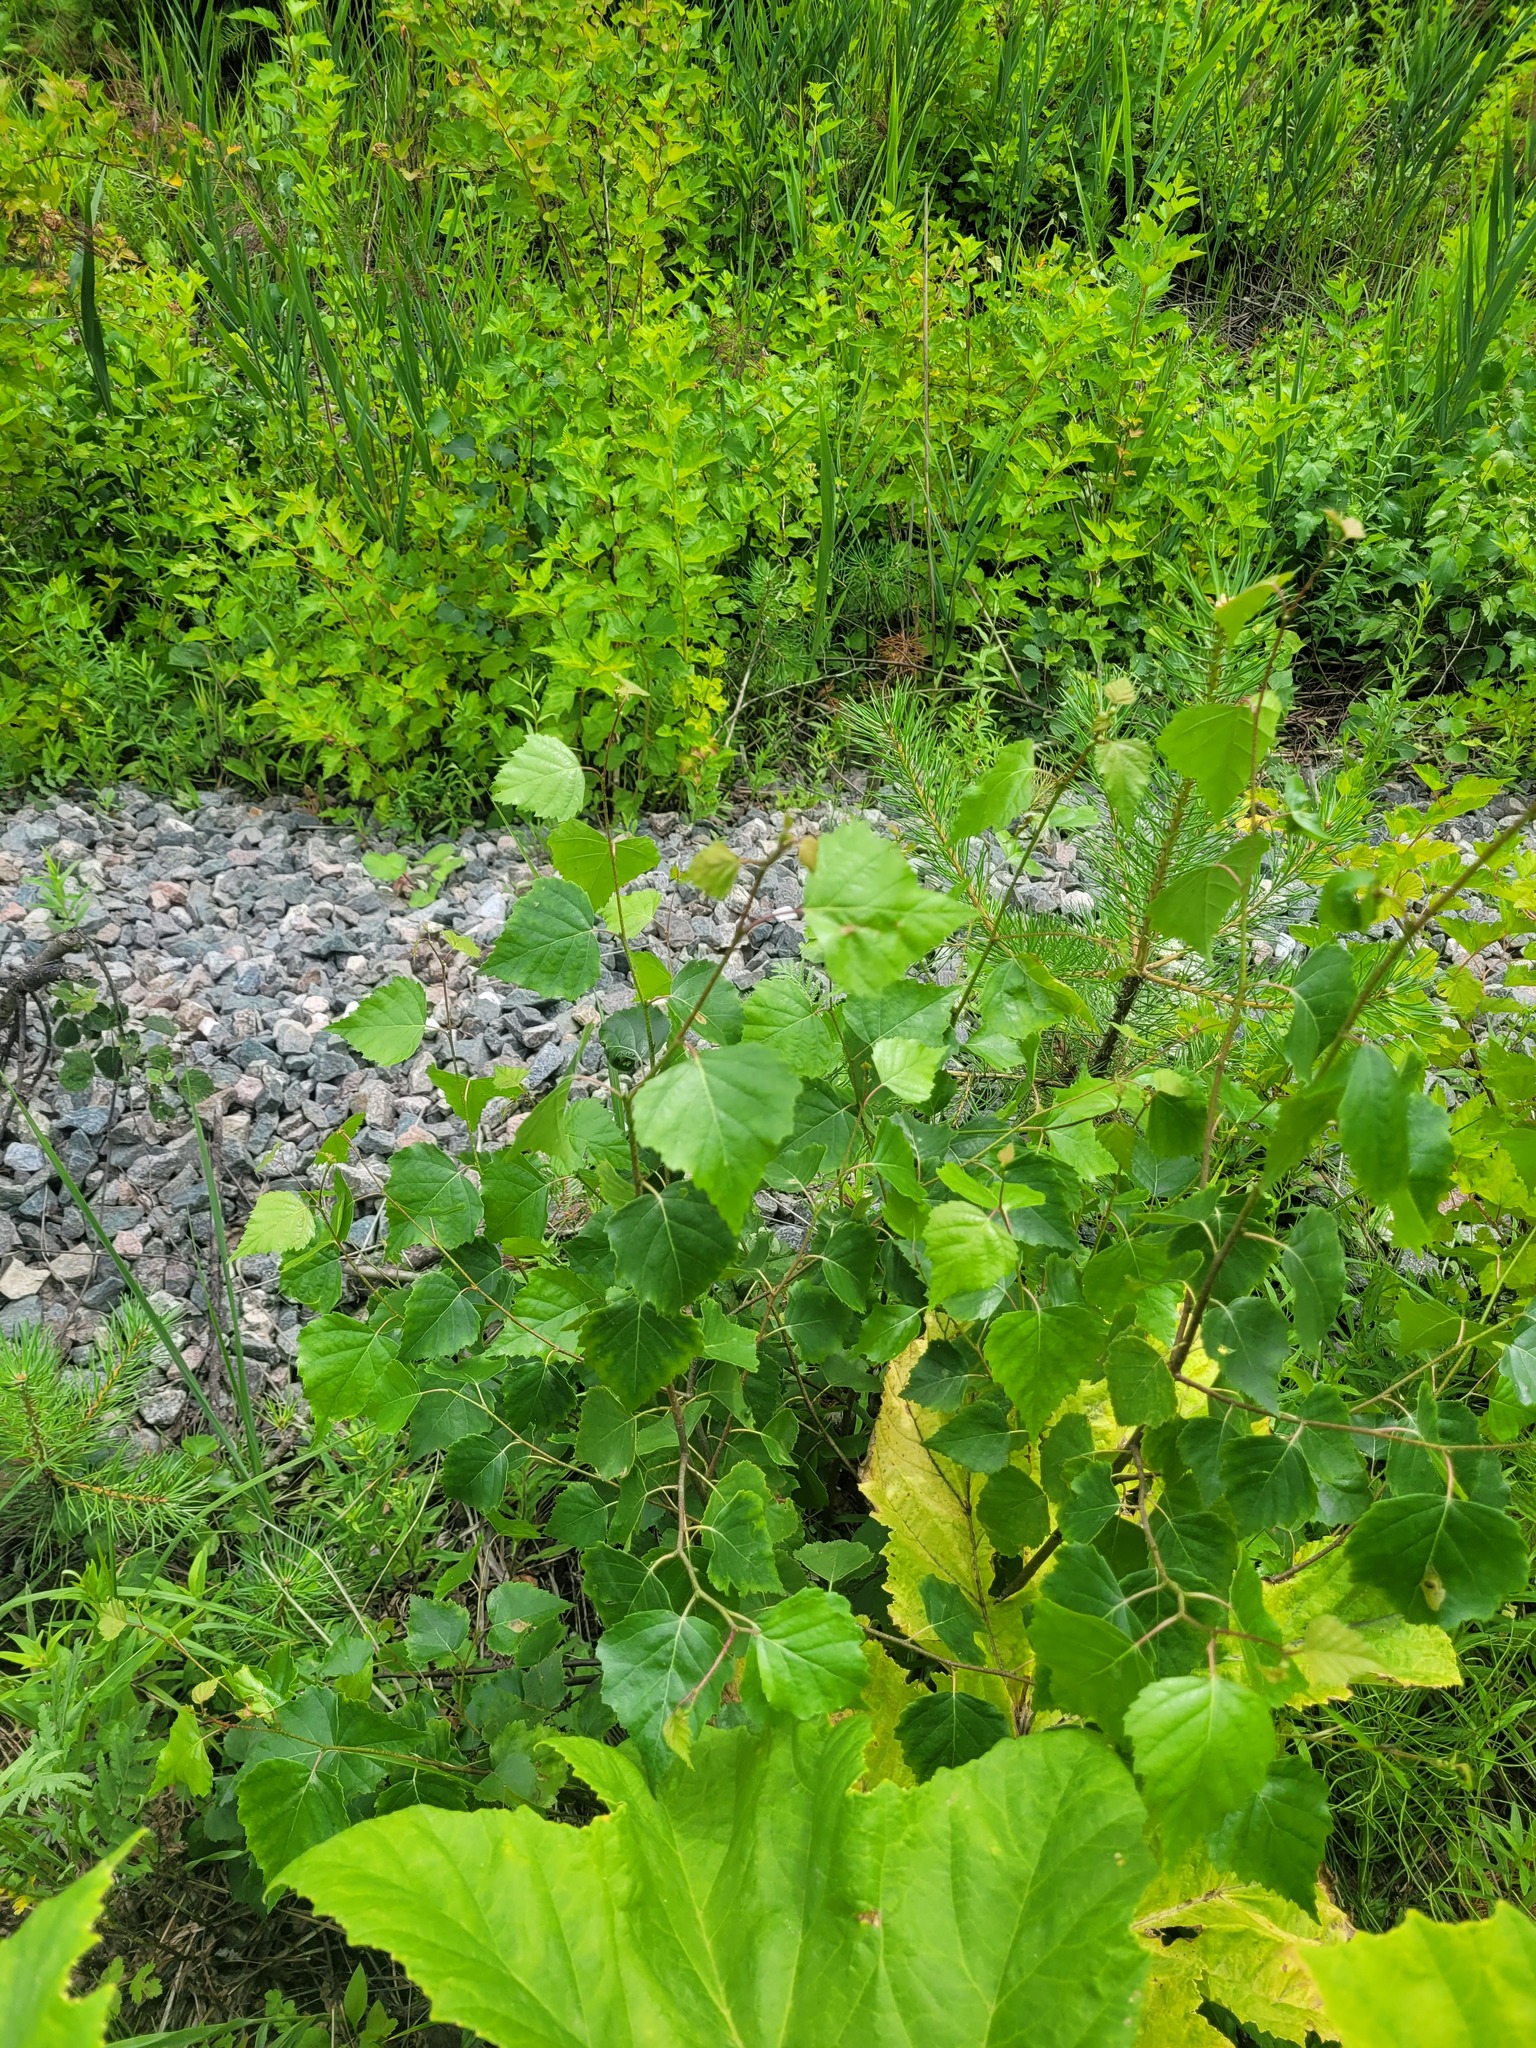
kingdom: Plantae
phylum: Tracheophyta
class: Magnoliopsida
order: Fagales
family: Betulaceae
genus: Betula
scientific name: Betula pendula
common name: Silver birch
